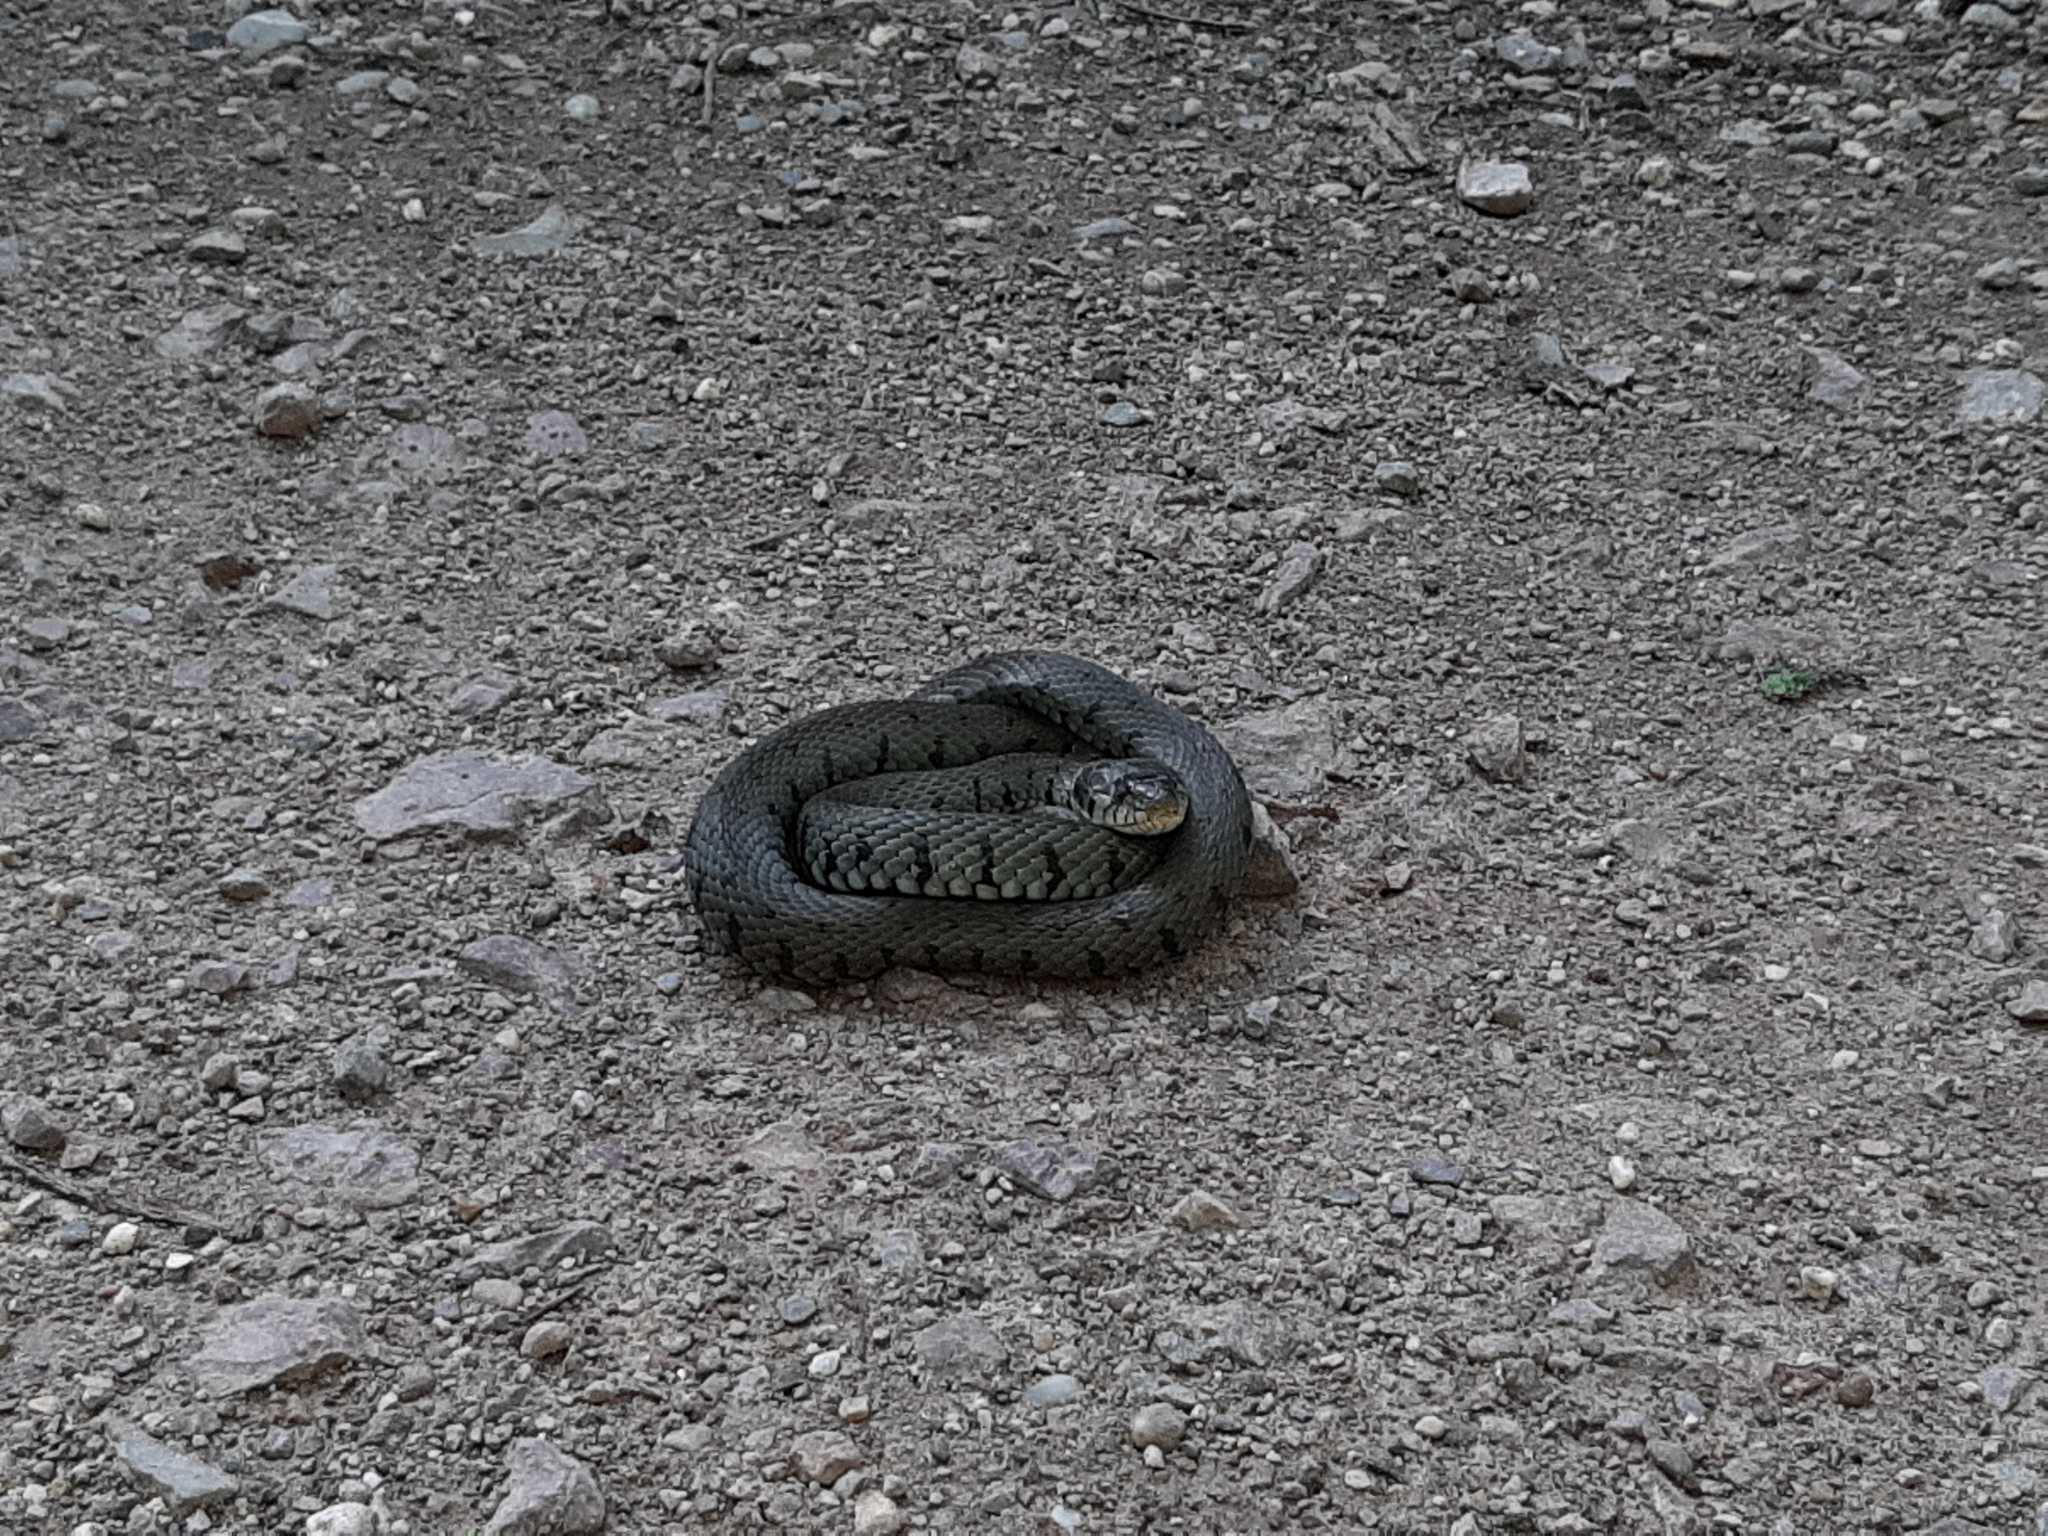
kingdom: Animalia
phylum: Chordata
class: Squamata
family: Colubridae
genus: Natrix
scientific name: Natrix helvetica
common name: Banded grass snake
